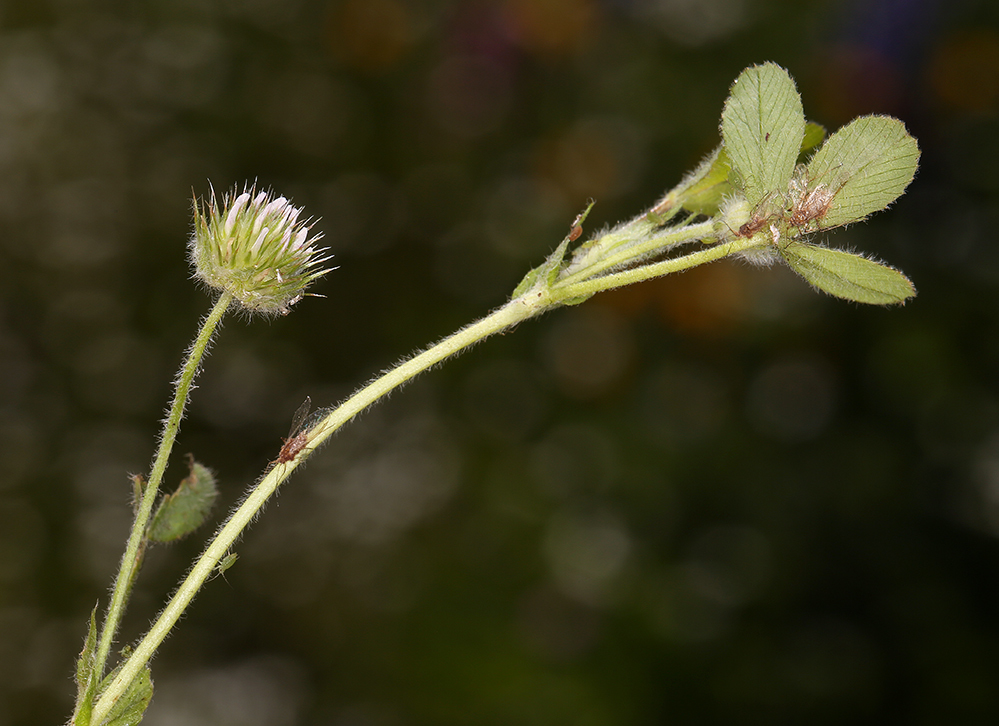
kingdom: Plantae
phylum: Tracheophyta
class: Magnoliopsida
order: Fabales
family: Fabaceae
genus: Trifolium
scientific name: Trifolium microcephalum
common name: Maiden clover
